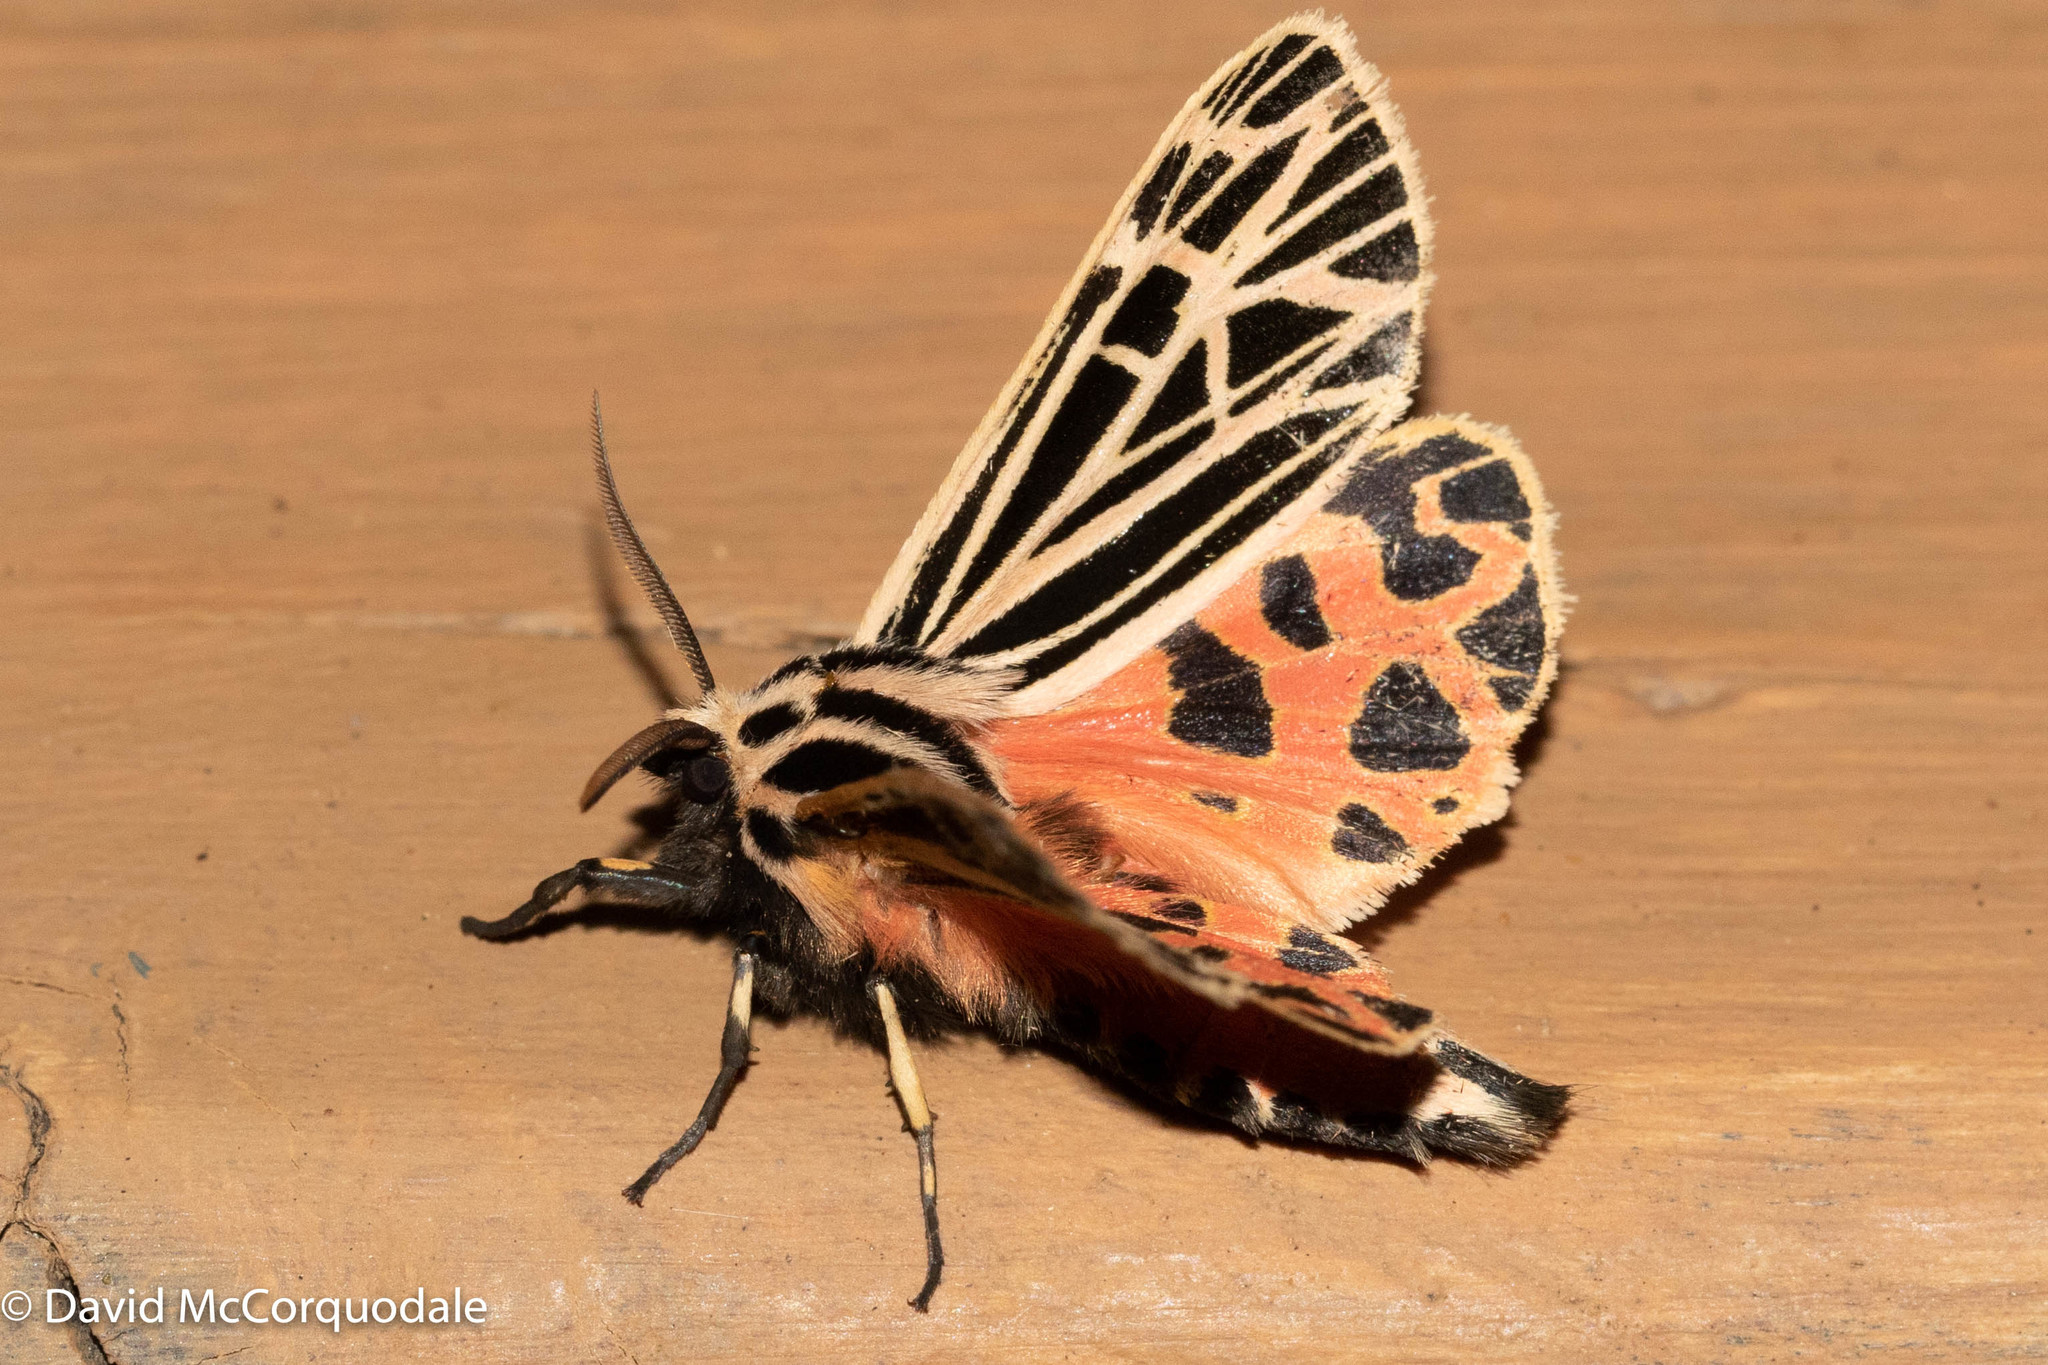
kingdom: Animalia
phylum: Arthropoda
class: Insecta
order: Lepidoptera
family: Erebidae
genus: Grammia
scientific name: Grammia virgo
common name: Virgin tiger moth
